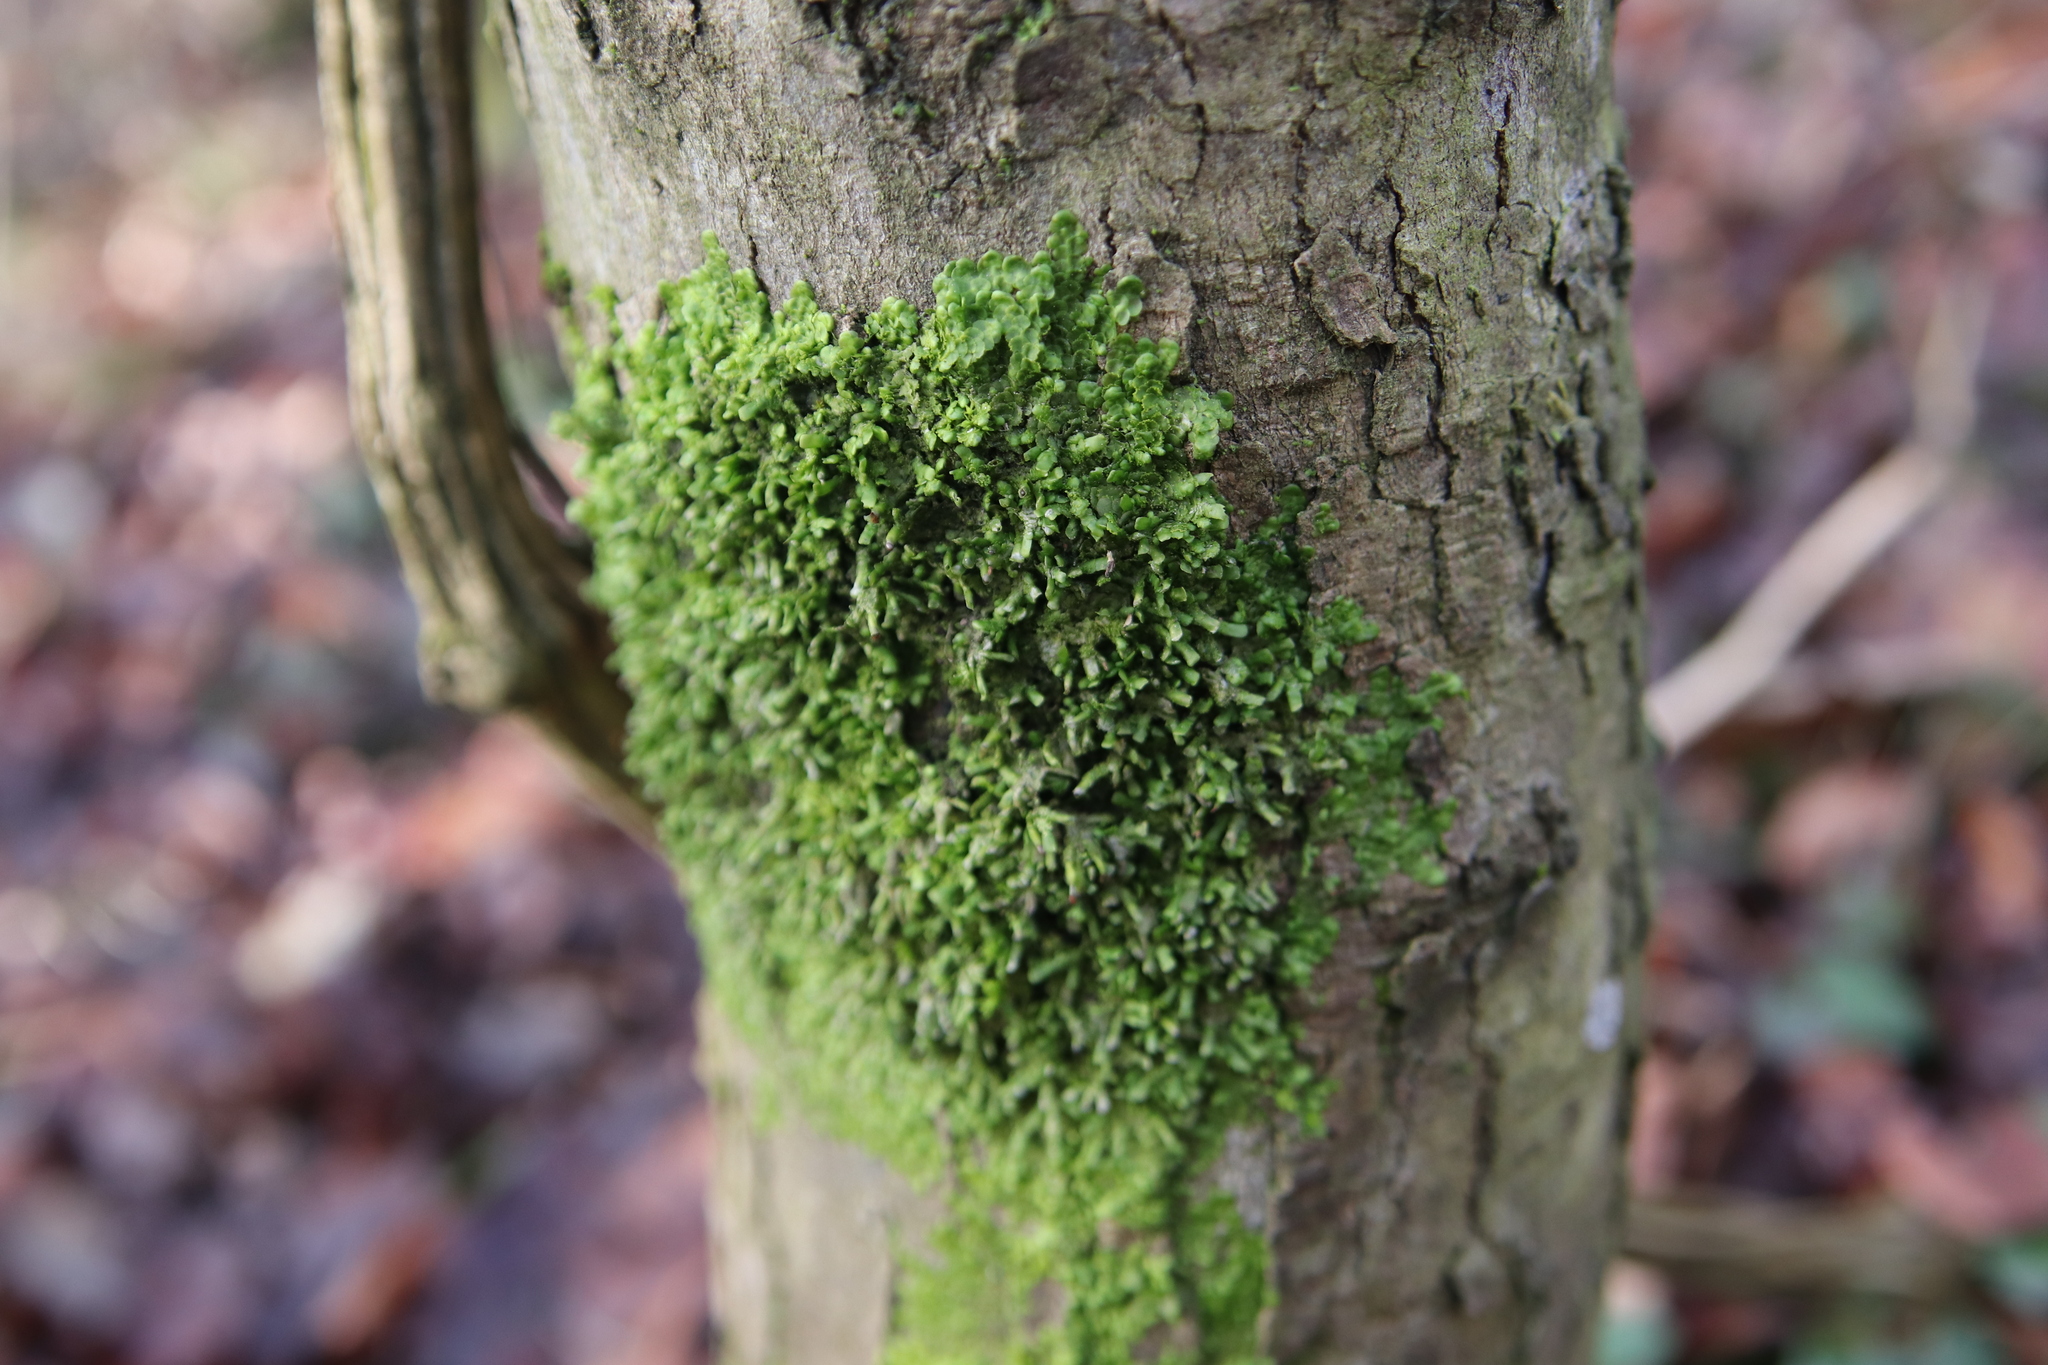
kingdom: Plantae
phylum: Marchantiophyta
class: Jungermanniopsida
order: Porellales
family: Radulaceae
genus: Radula
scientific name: Radula complanata
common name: Flat-leaved scalewort
